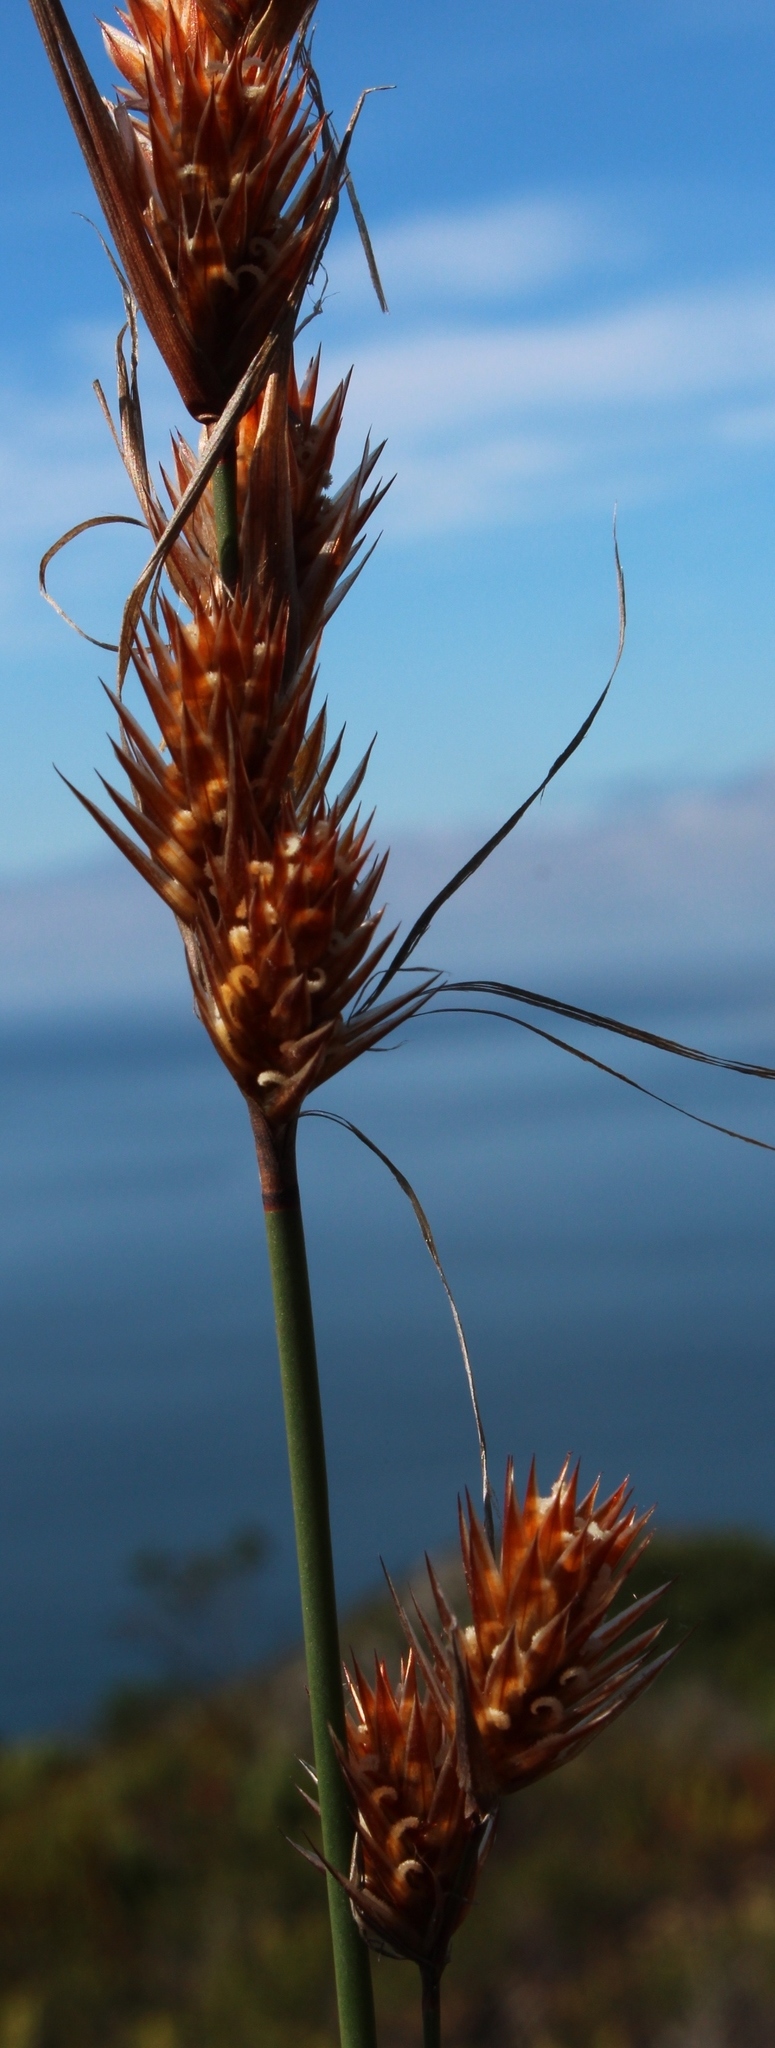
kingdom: Plantae
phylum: Tracheophyta
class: Liliopsida
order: Poales
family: Restionaceae
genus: Thamnochortus
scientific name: Thamnochortus lucens
